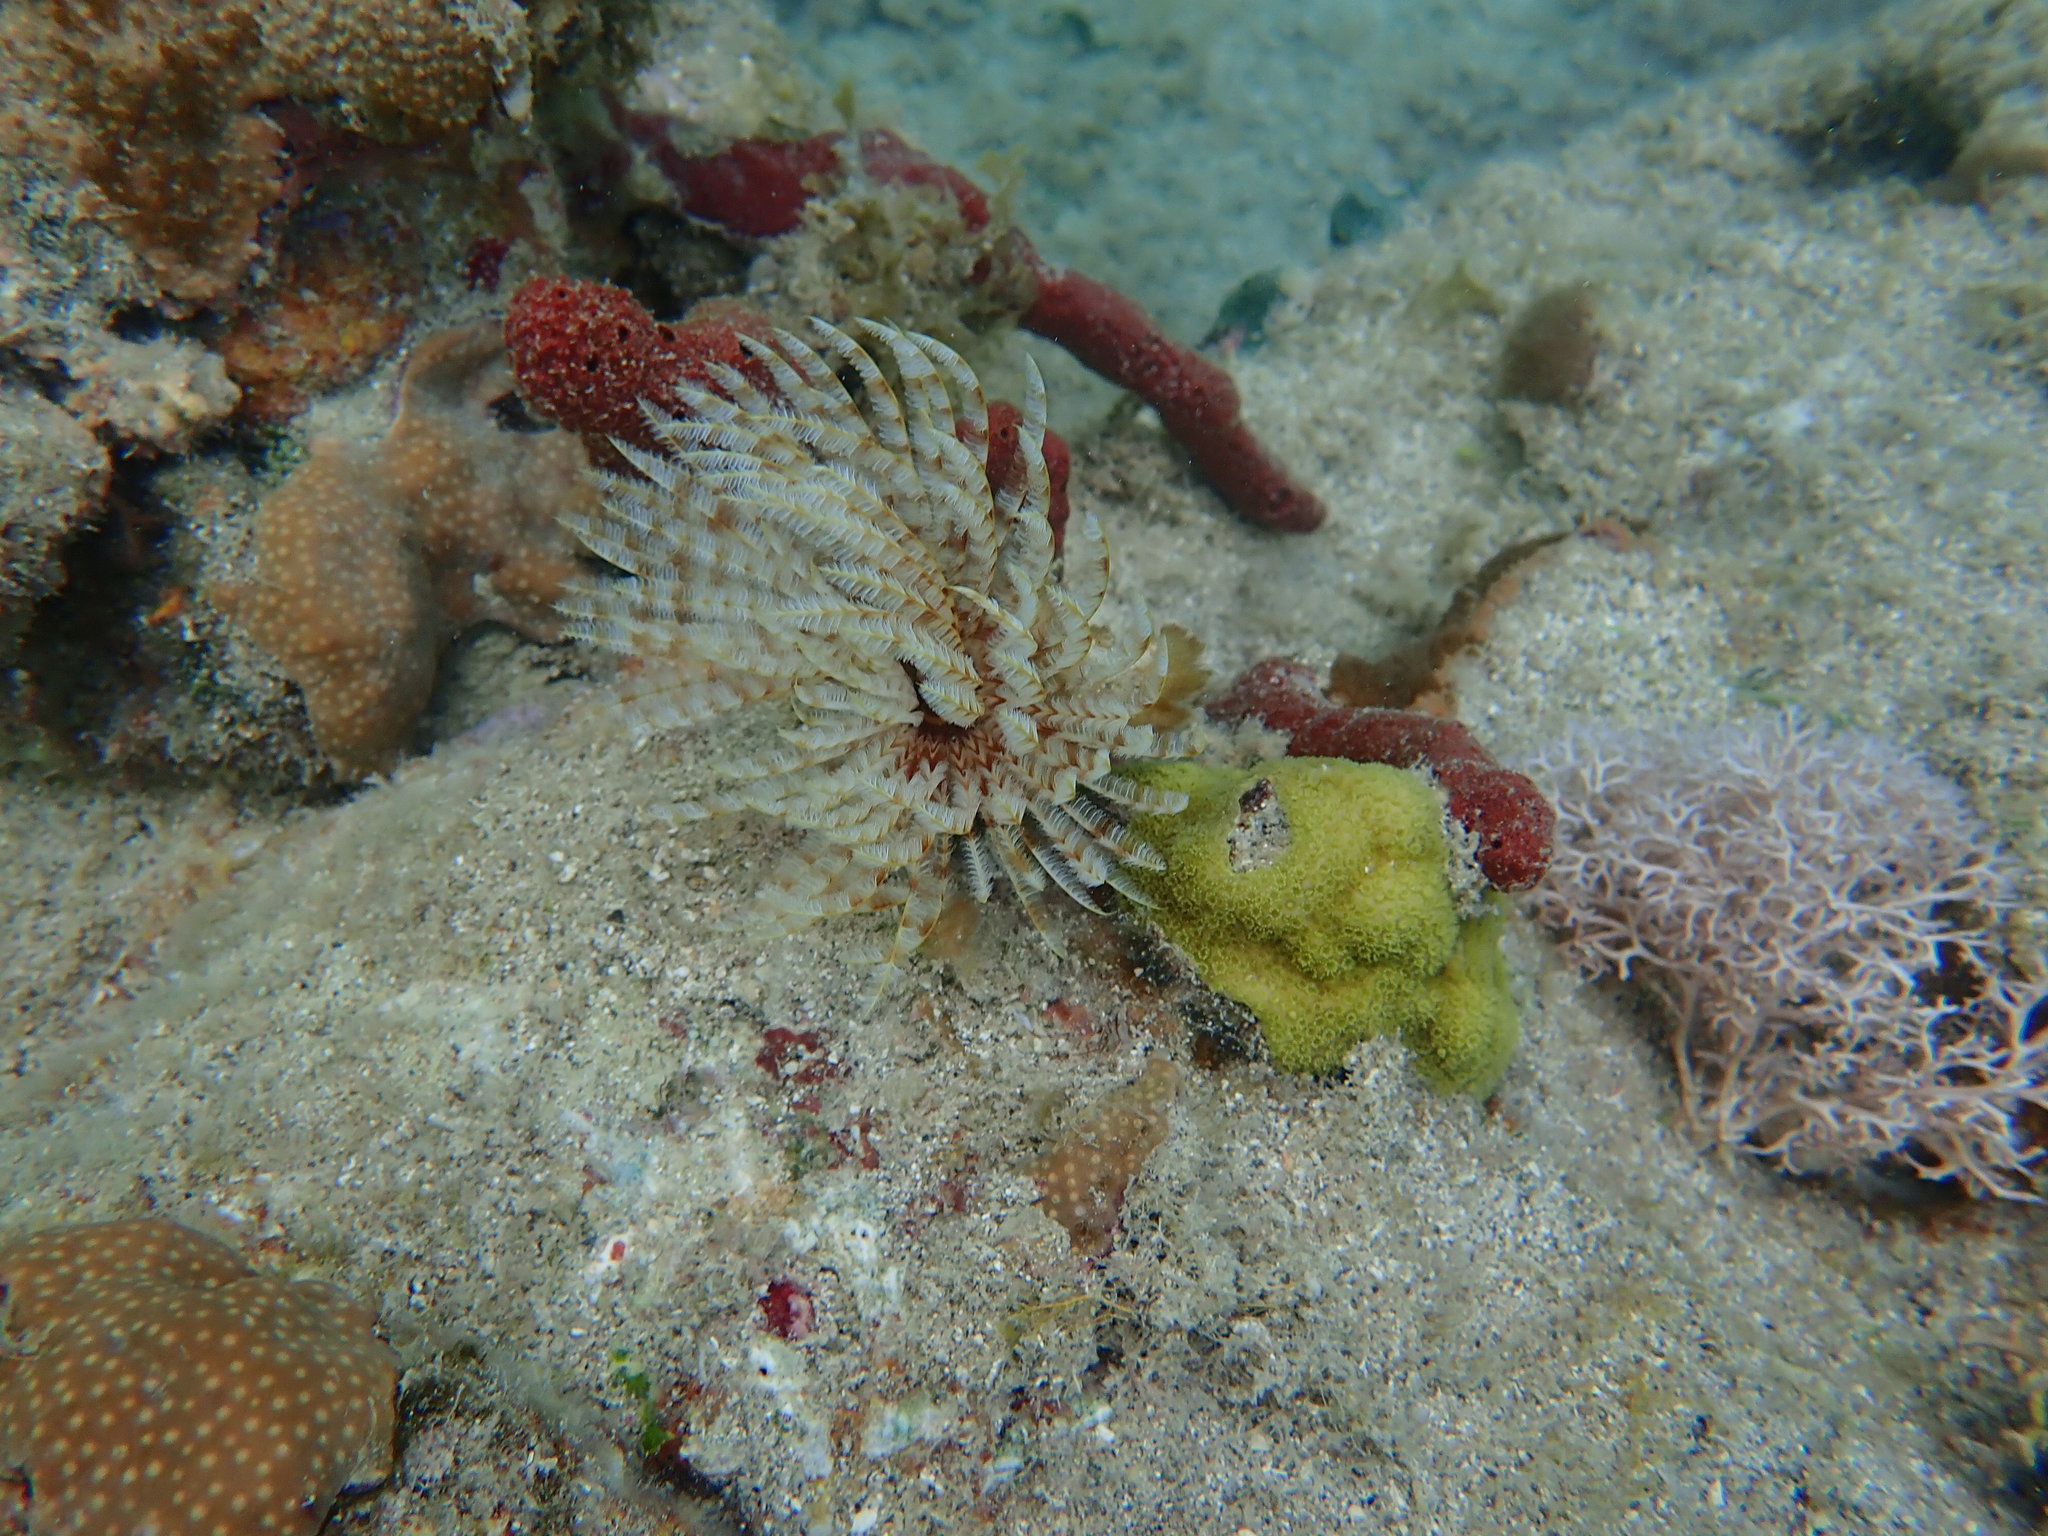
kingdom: Animalia
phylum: Annelida
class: Polychaeta
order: Sabellida
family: Sabellidae
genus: Sabellastarte
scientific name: Sabellastarte magnifica
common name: Giant feather-duster worm
